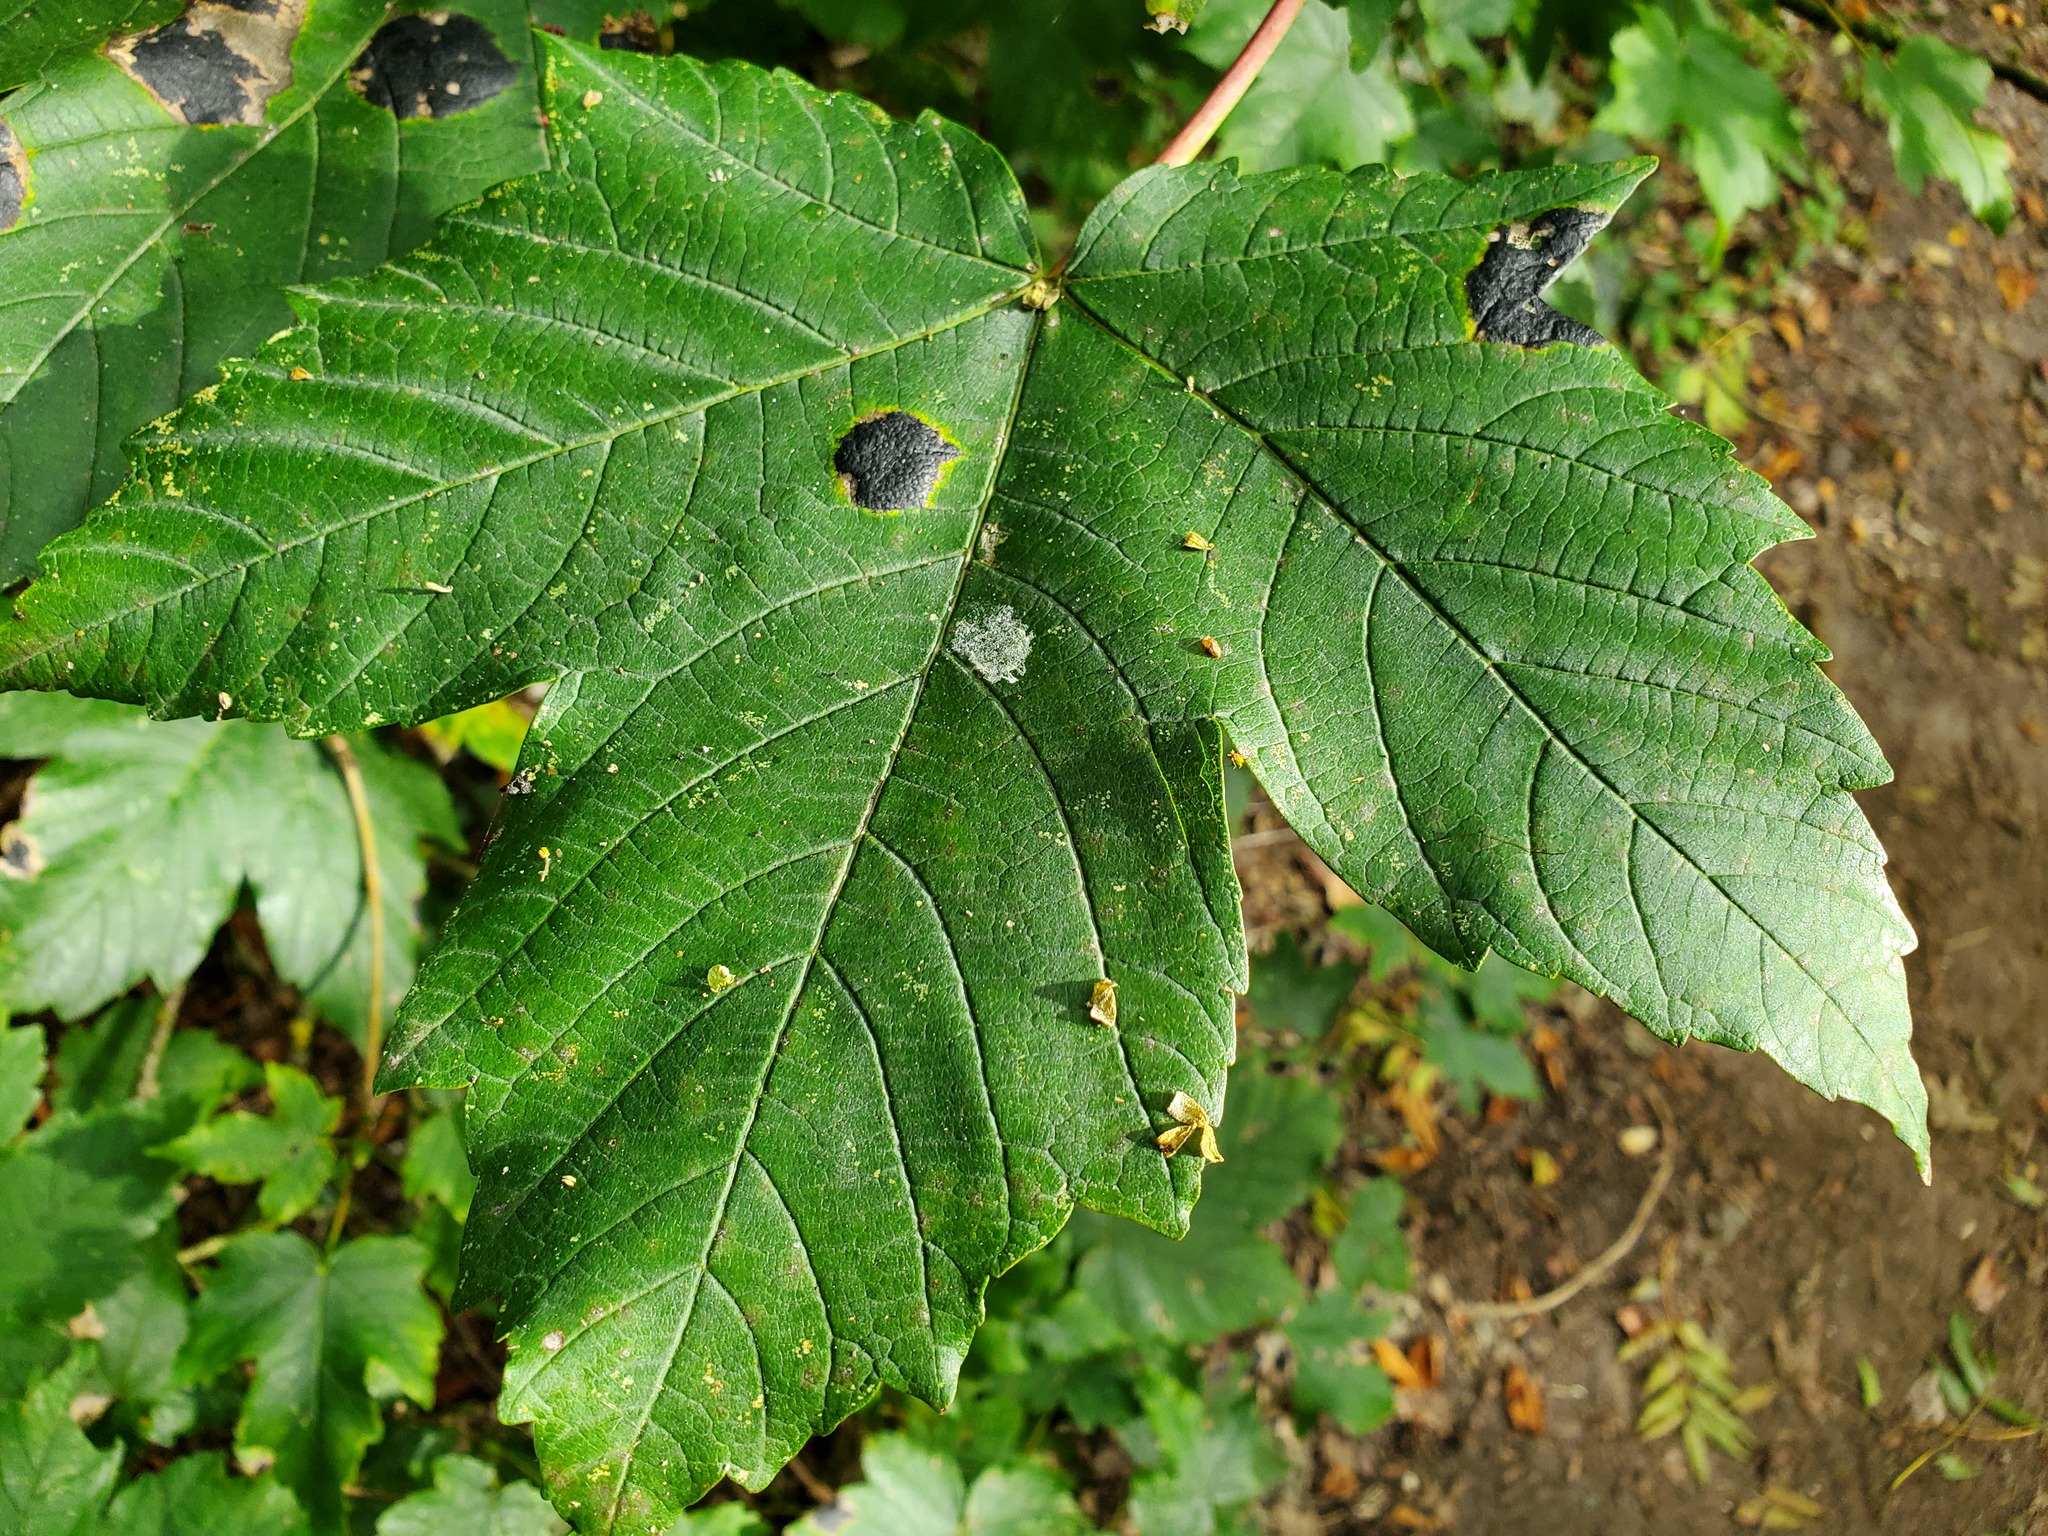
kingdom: Fungi
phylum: Ascomycota
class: Leotiomycetes
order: Rhytismatales
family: Rhytismataceae
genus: Rhytisma
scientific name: Rhytisma acerinum
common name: European tar spot
